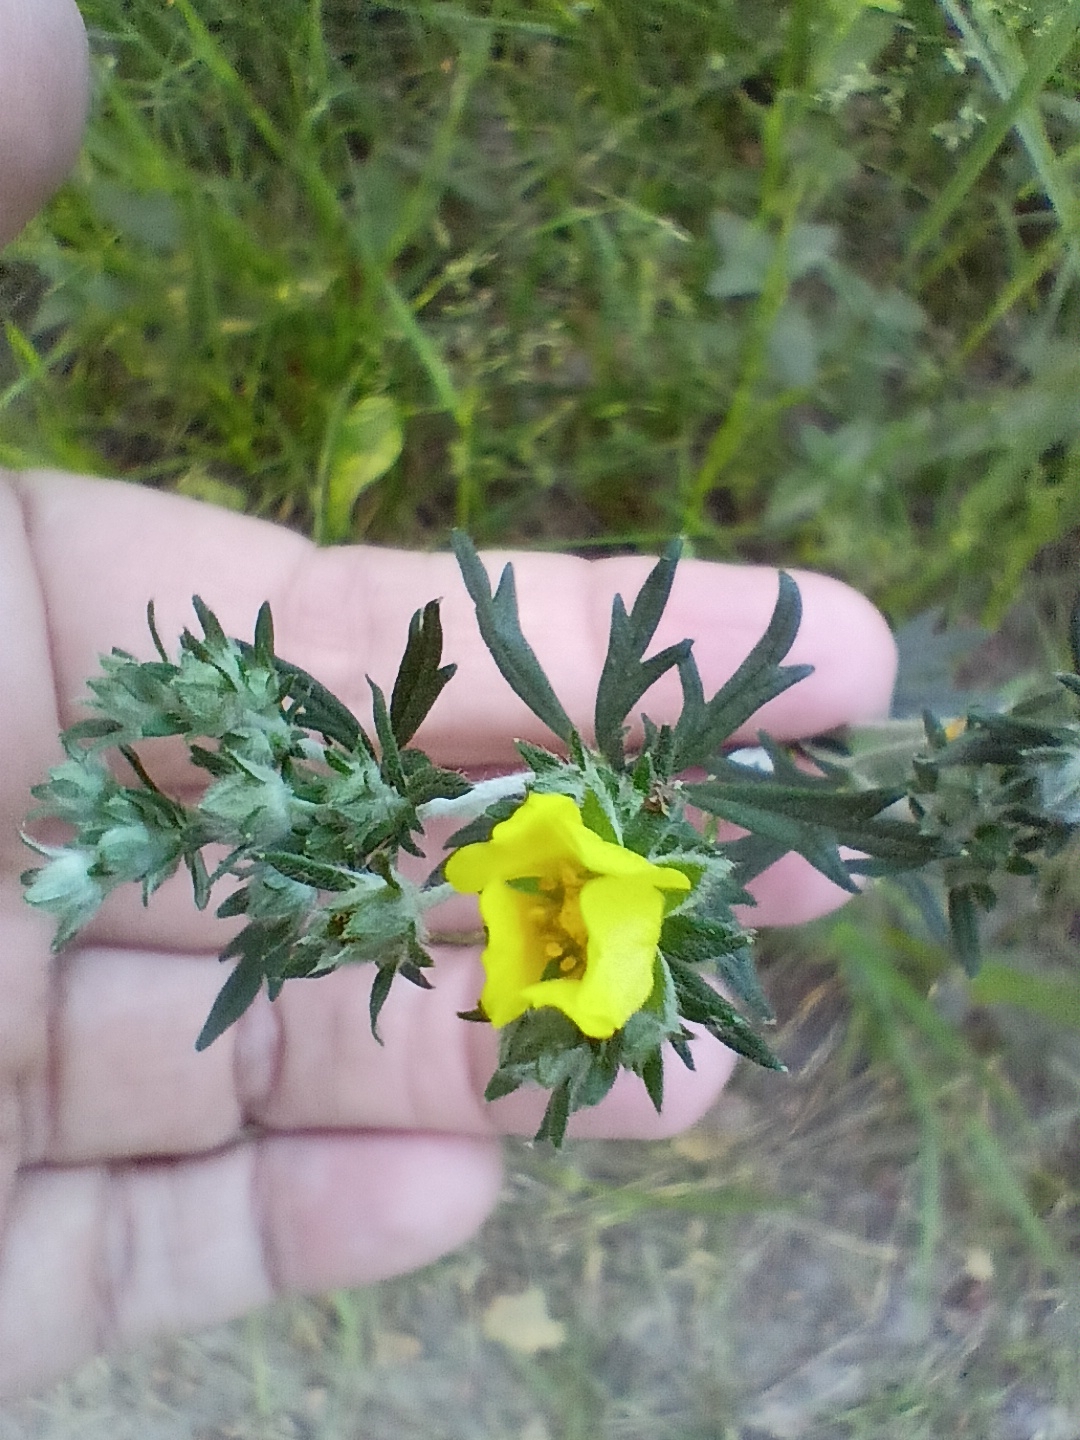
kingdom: Plantae
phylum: Tracheophyta
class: Magnoliopsida
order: Rosales
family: Rosaceae
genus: Potentilla
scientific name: Potentilla argentea
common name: Hoary cinquefoil
